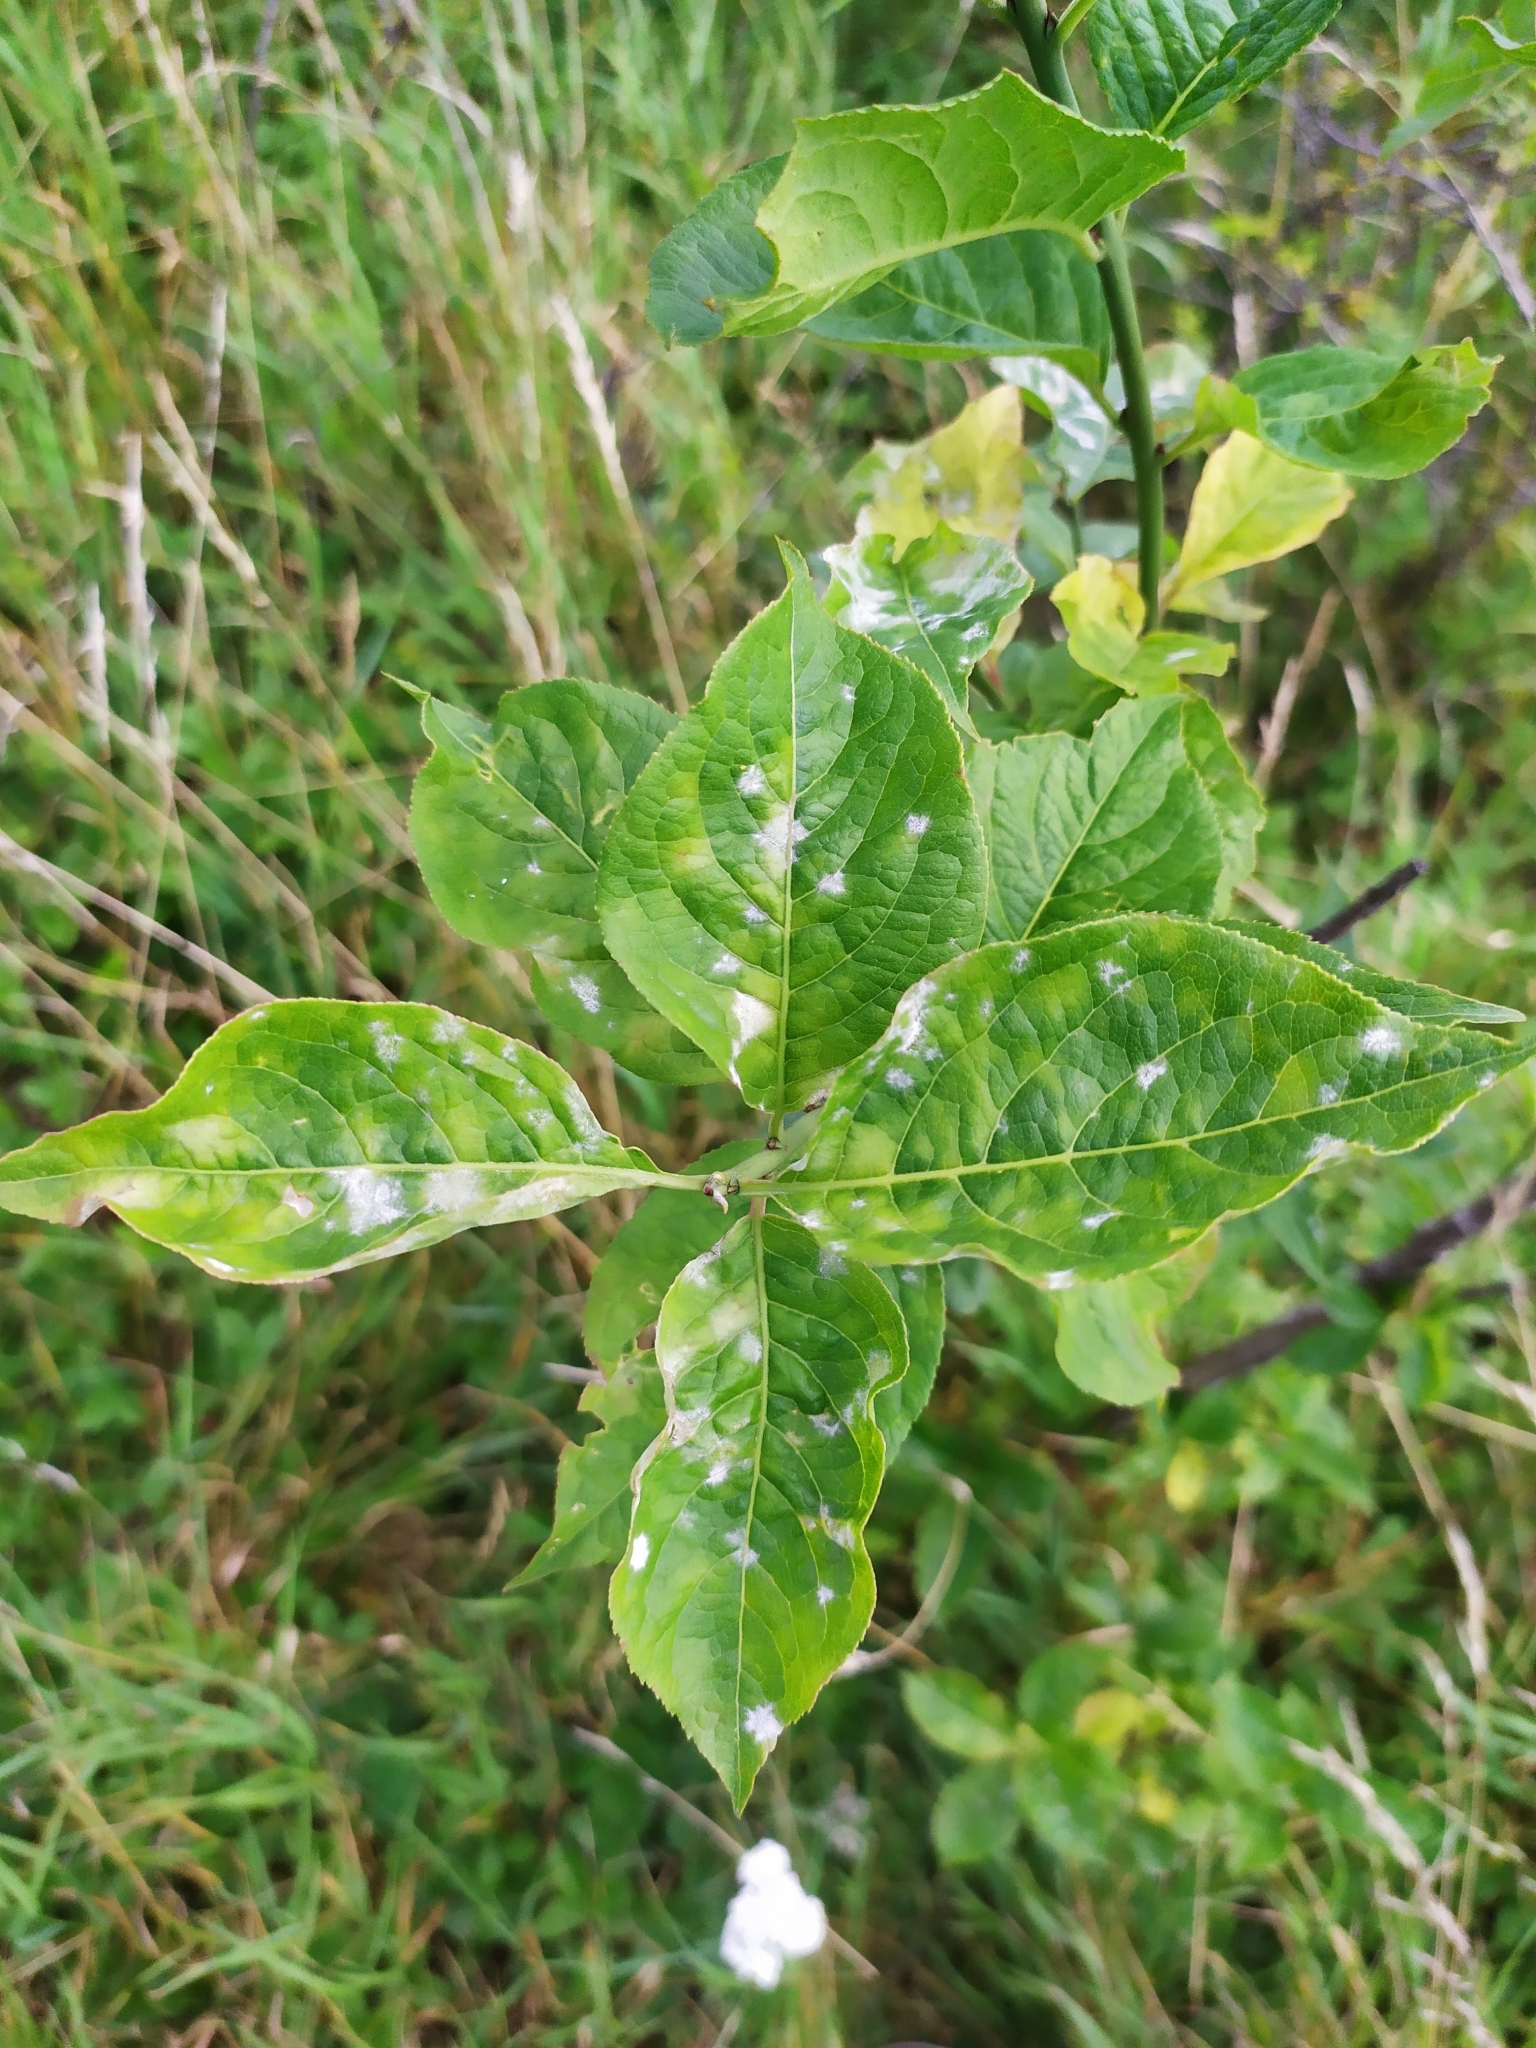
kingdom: Plantae
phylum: Tracheophyta
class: Magnoliopsida
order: Celastrales
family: Celastraceae
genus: Euonymus
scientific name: Euonymus europaeus
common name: Spindle
